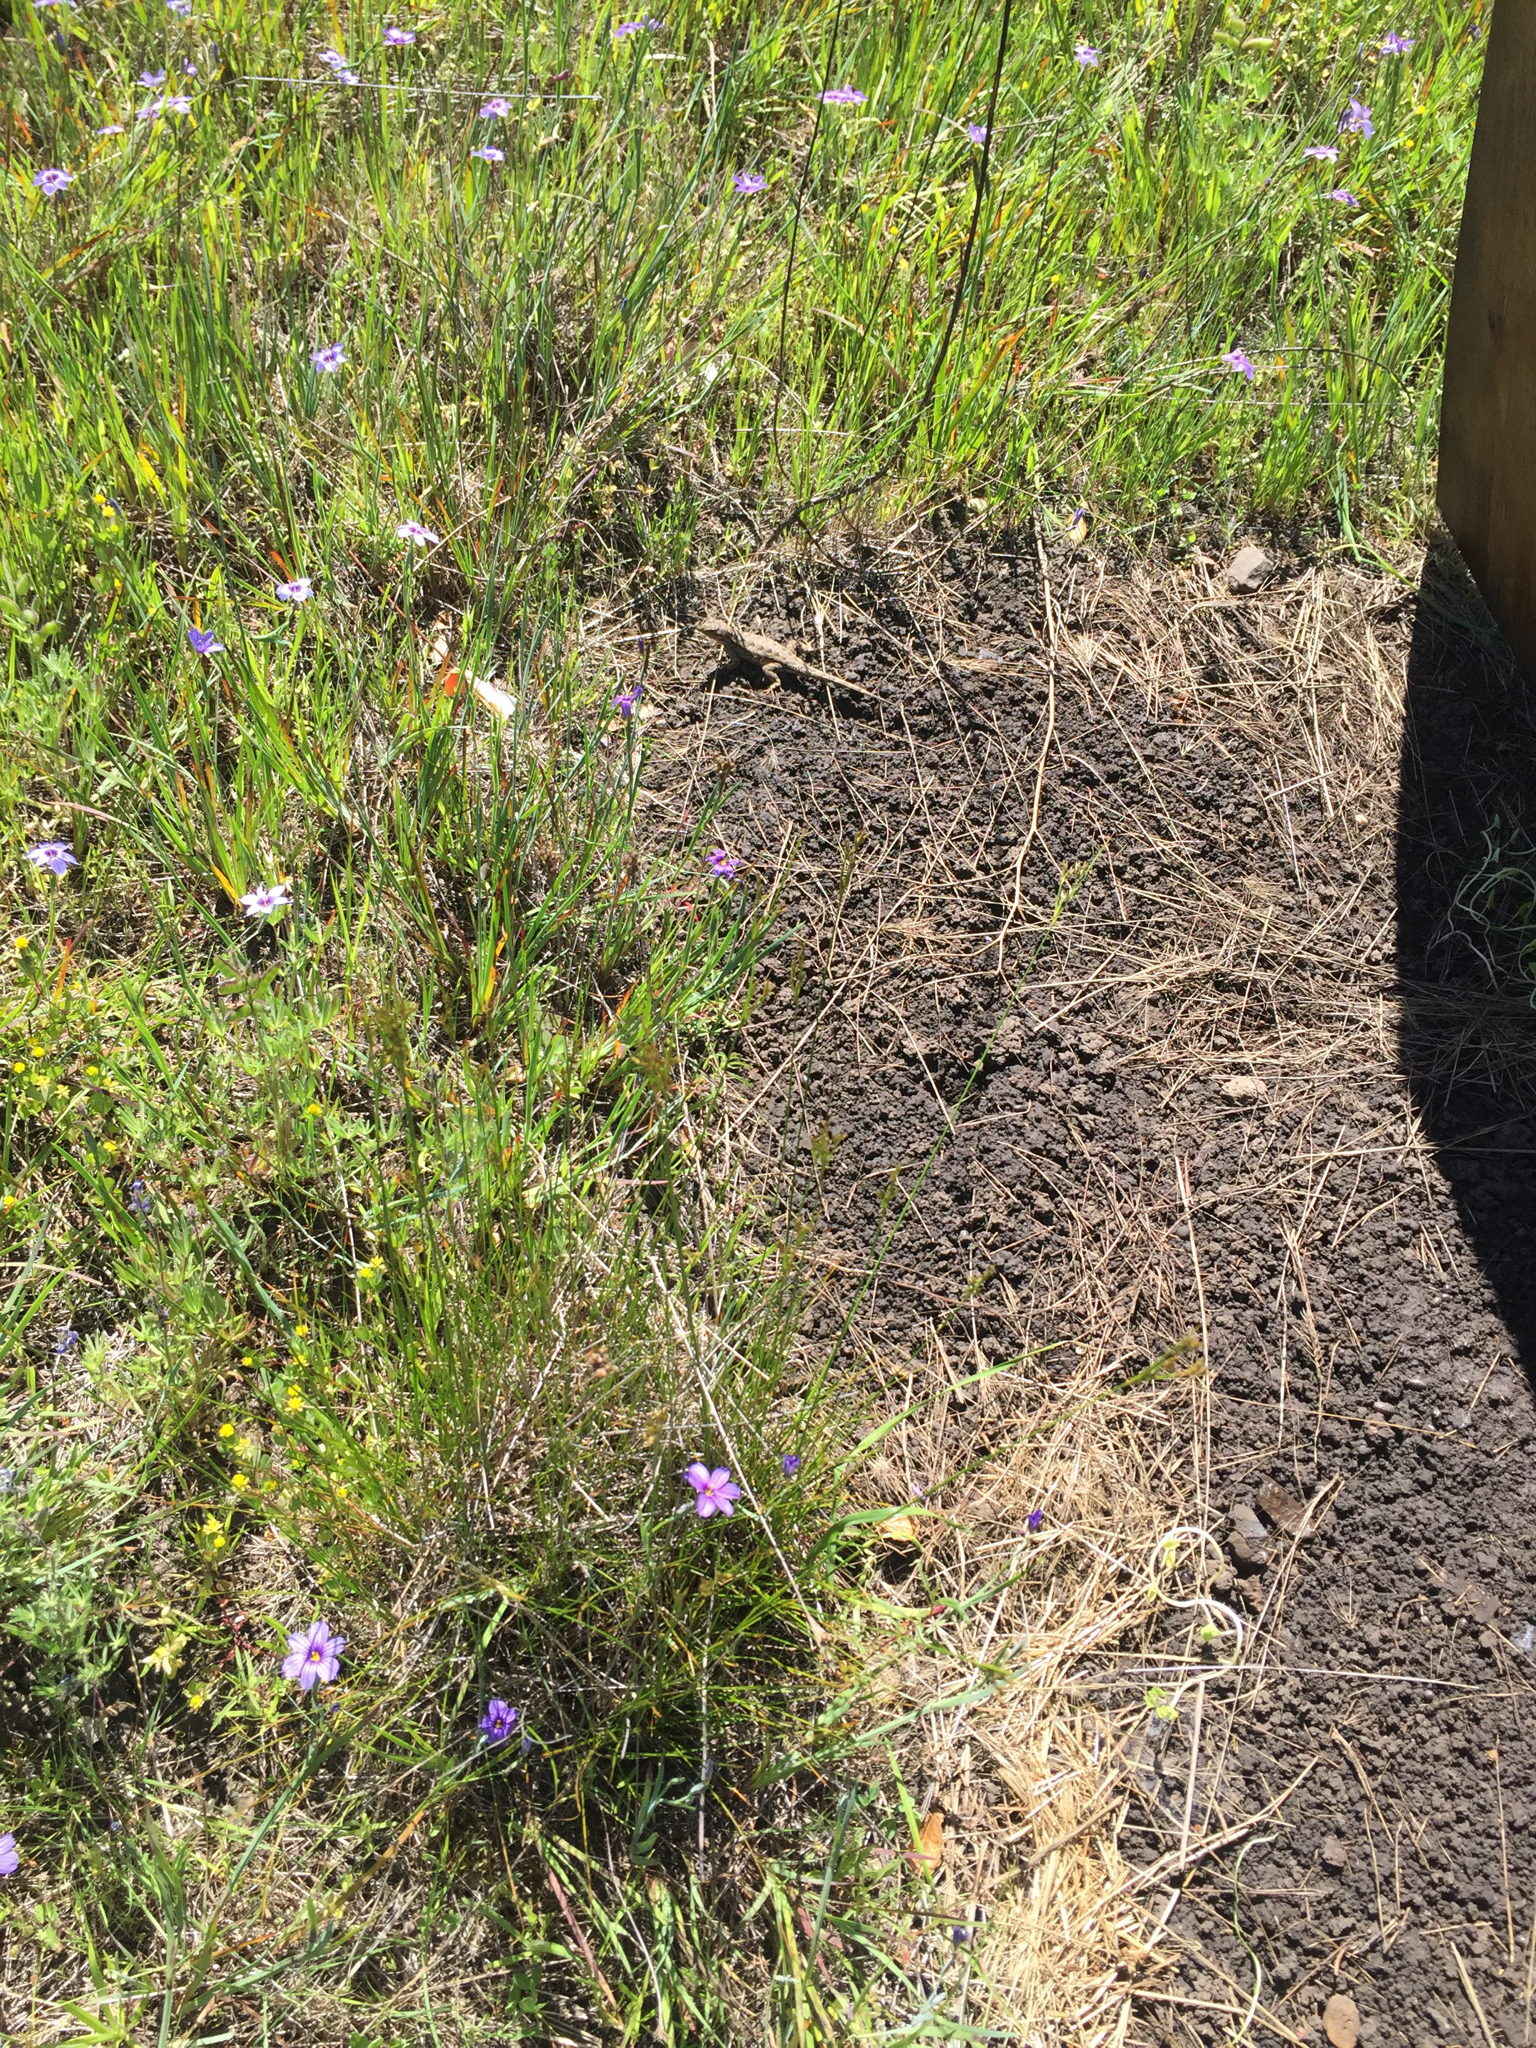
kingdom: Animalia
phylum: Chordata
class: Squamata
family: Phrynosomatidae
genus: Sceloporus
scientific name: Sceloporus occidentalis
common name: Western fence lizard
